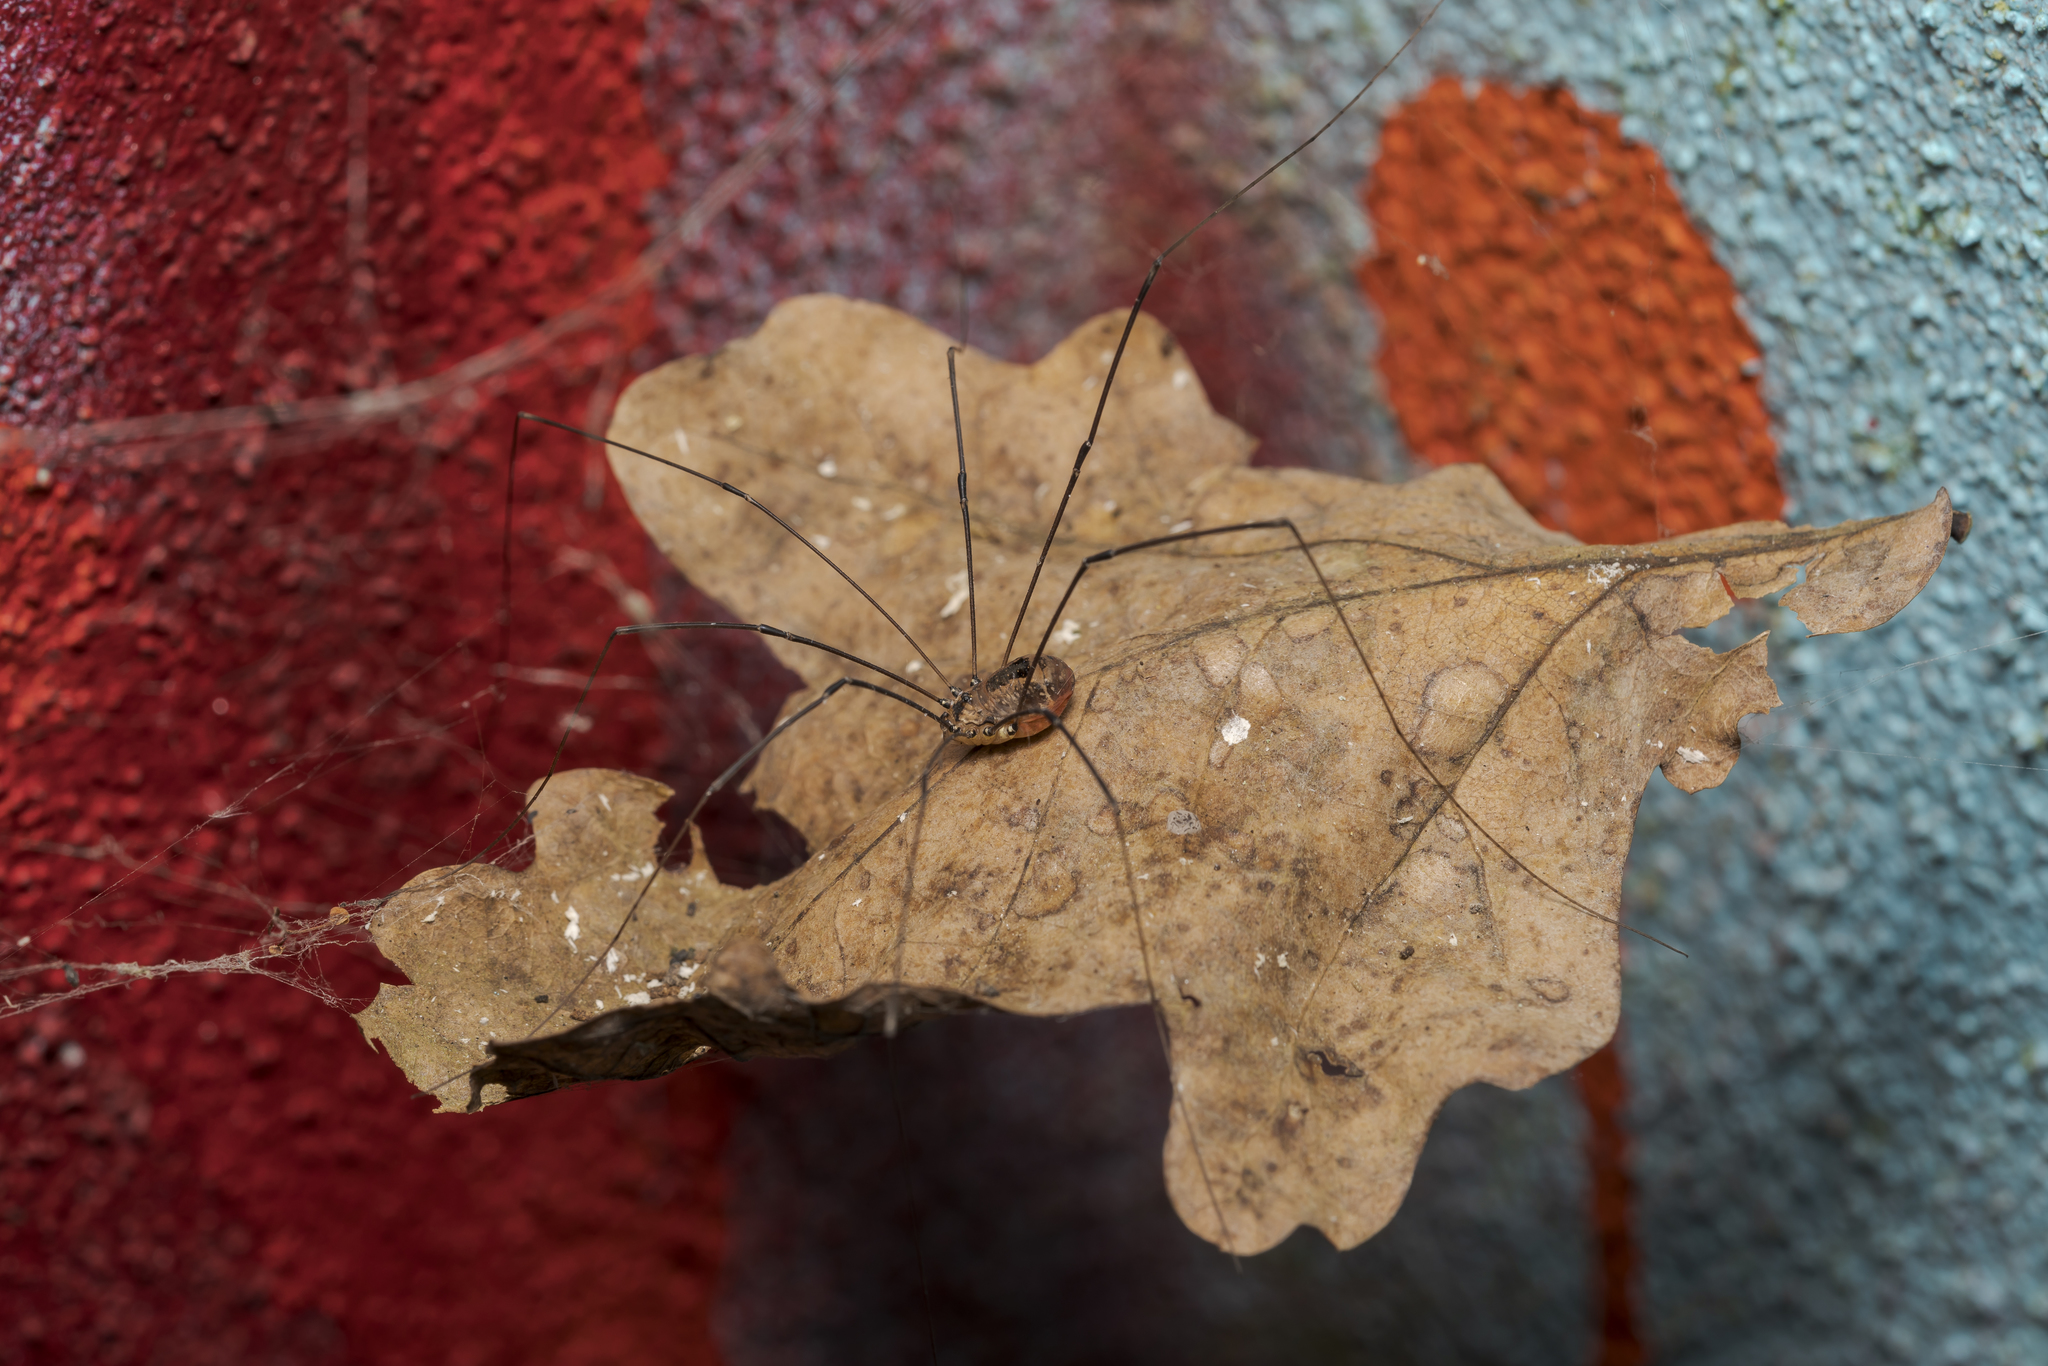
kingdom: Animalia
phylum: Arthropoda
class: Arachnida
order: Opiliones
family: Sclerosomatidae
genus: Leiobunum
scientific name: Leiobunum rotundum
